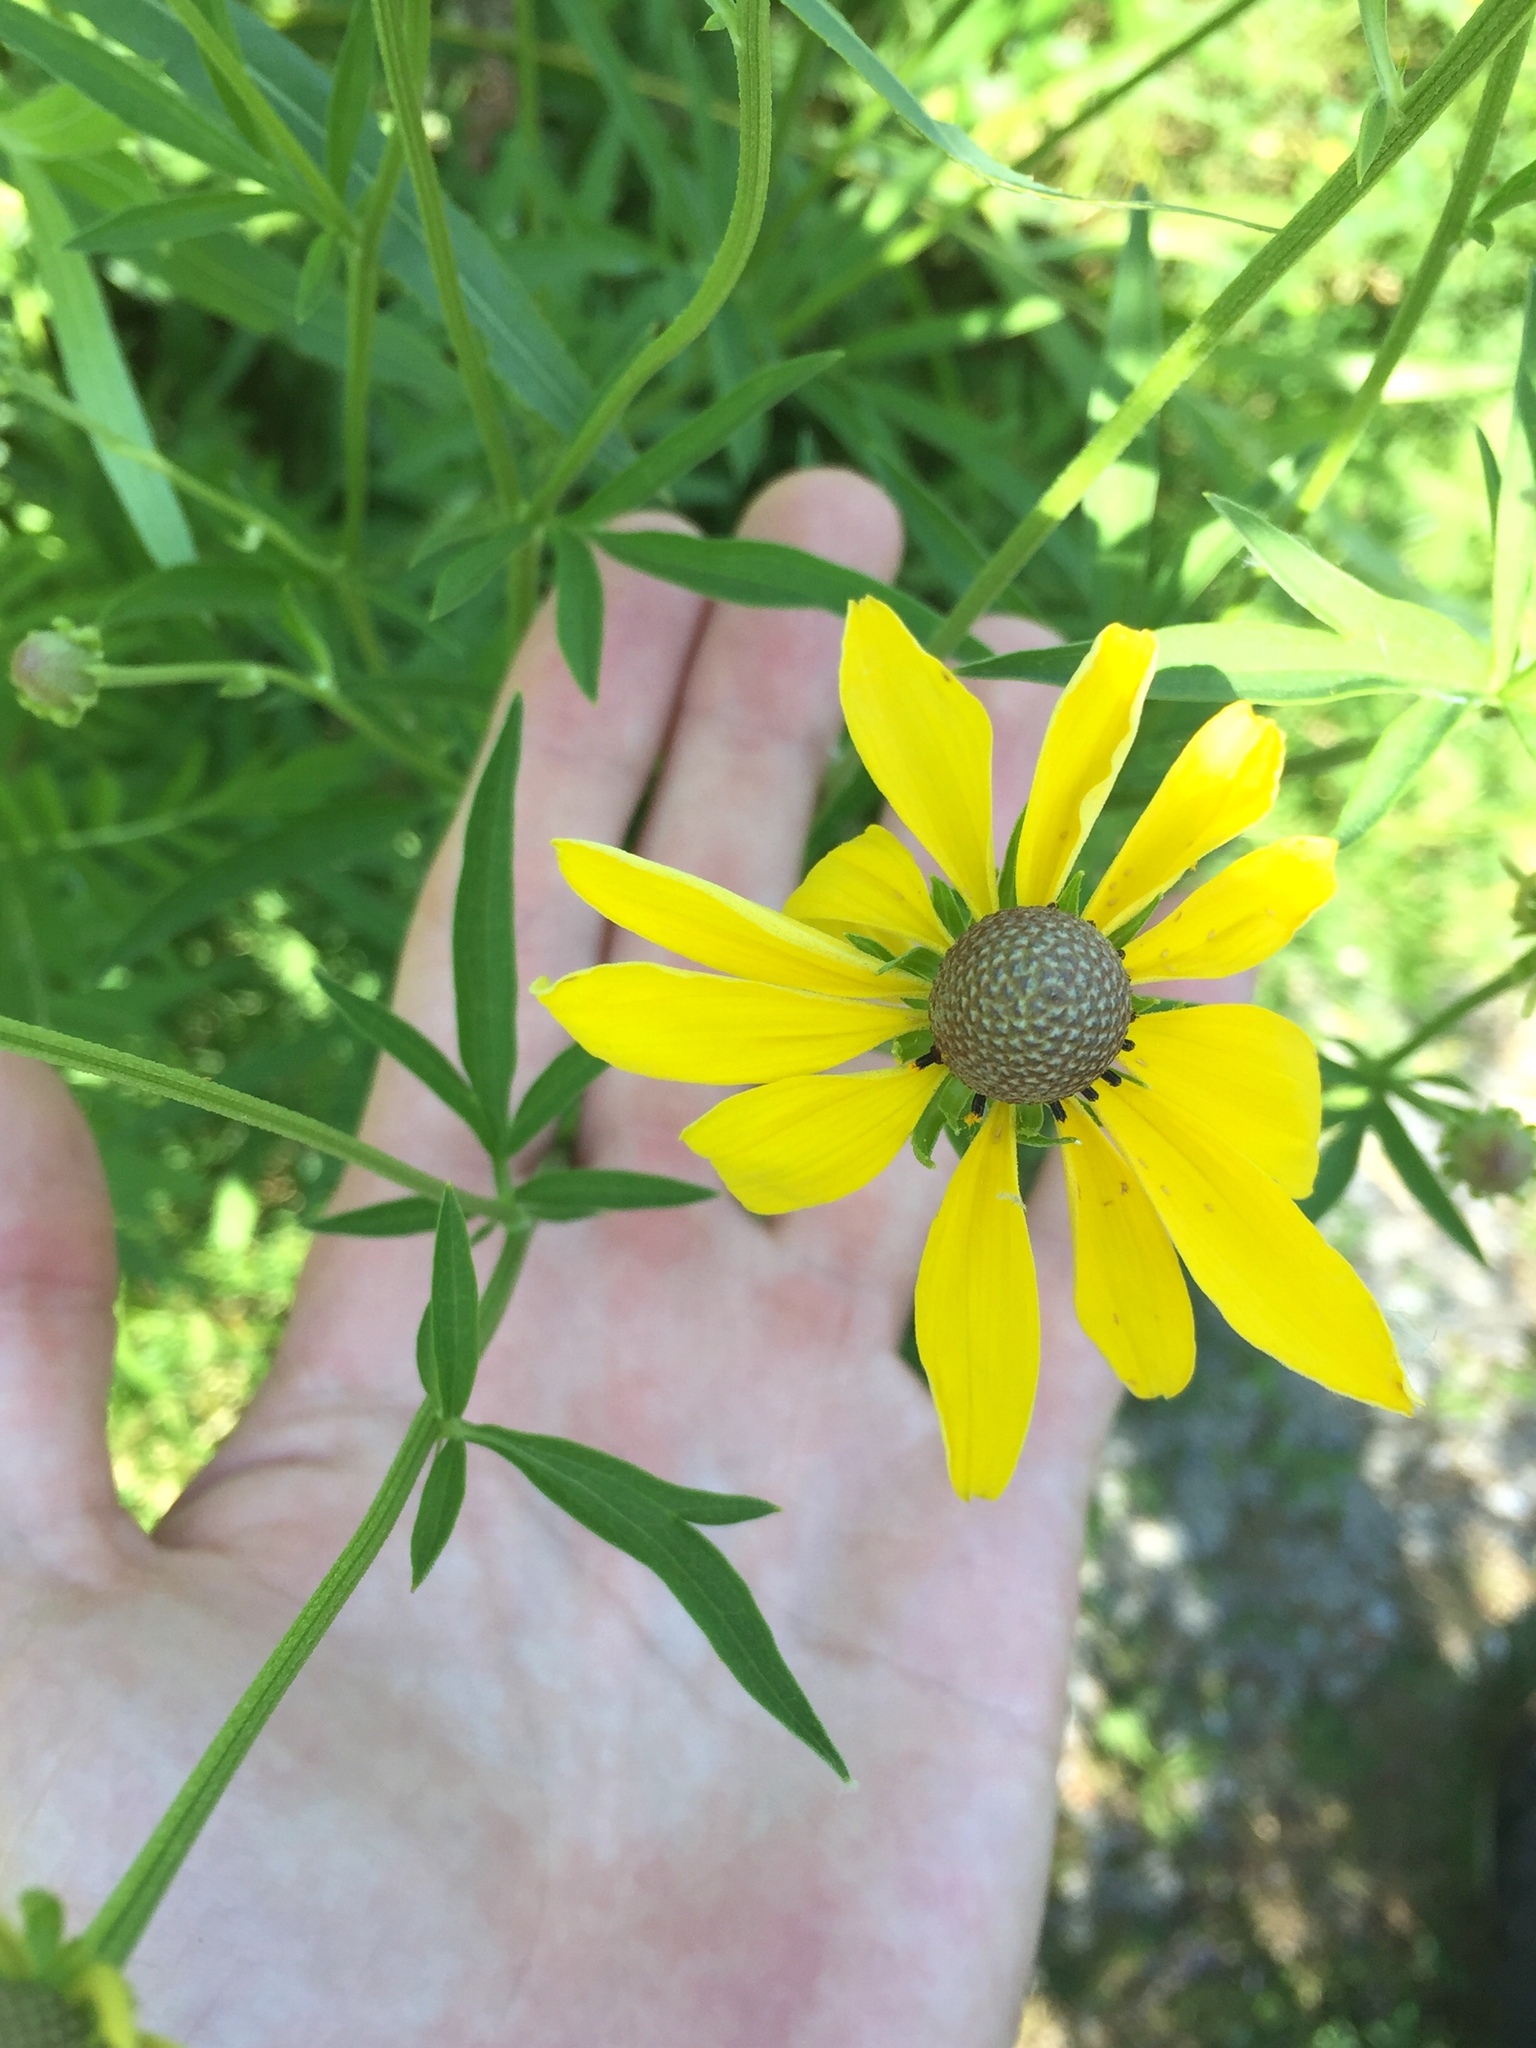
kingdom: Plantae
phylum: Tracheophyta
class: Magnoliopsida
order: Asterales
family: Asteraceae
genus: Ratibida
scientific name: Ratibida pinnata
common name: Drooping prairie-coneflower
